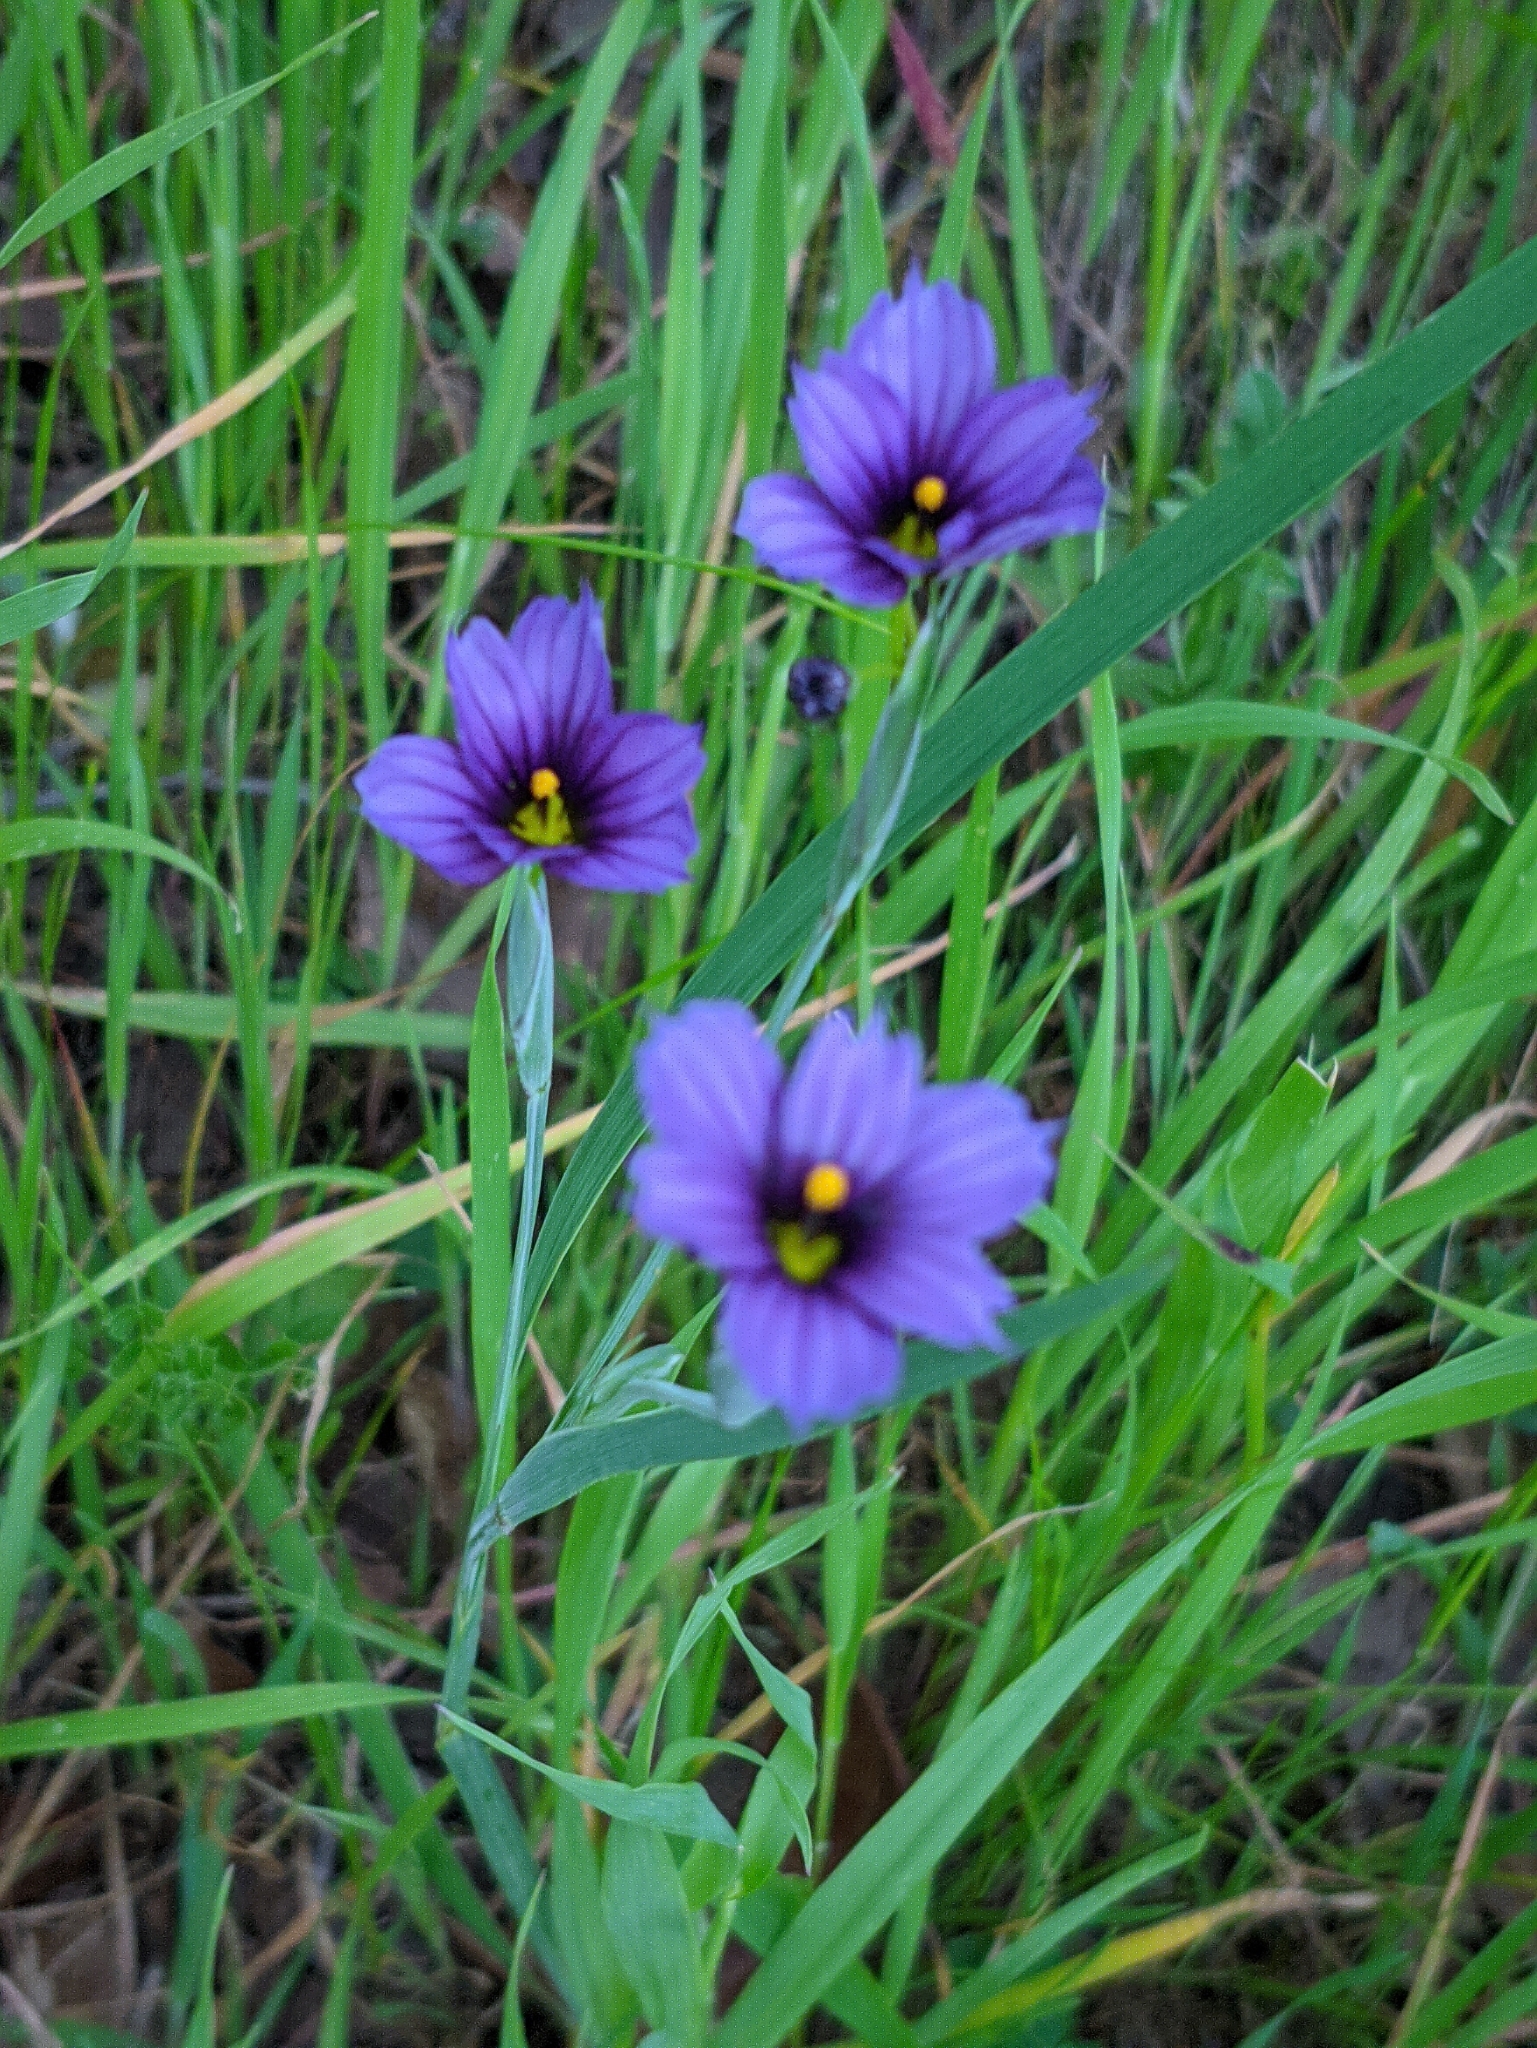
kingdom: Plantae
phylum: Tracheophyta
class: Liliopsida
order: Asparagales
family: Iridaceae
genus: Sisyrinchium
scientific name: Sisyrinchium bellum
